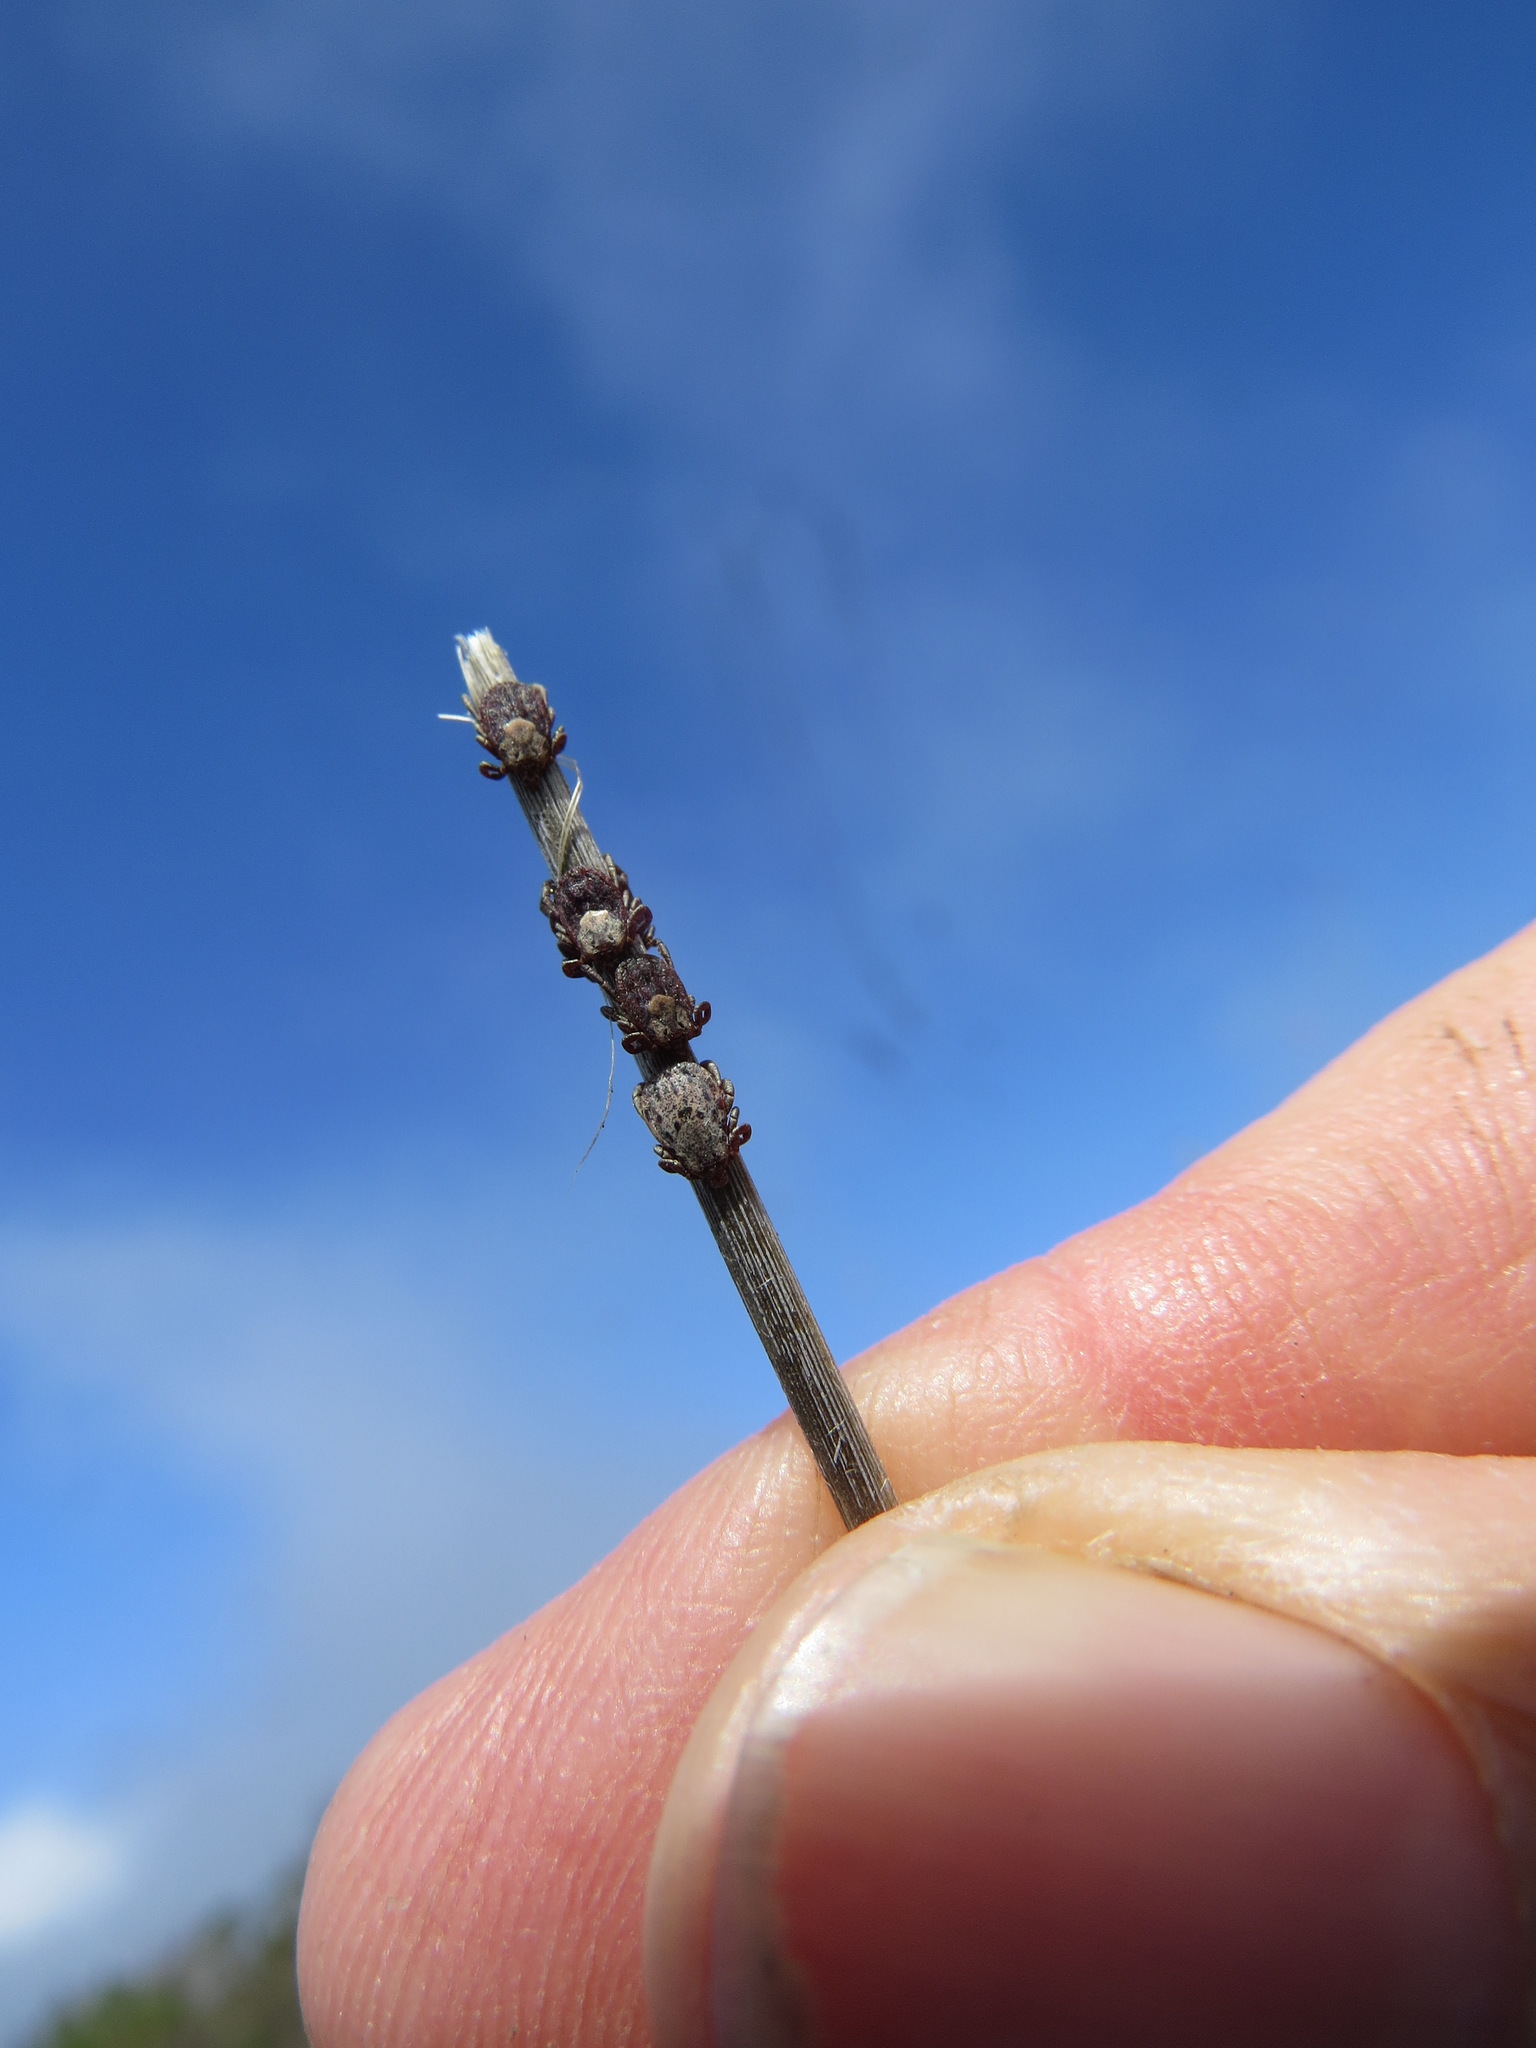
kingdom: Animalia
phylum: Arthropoda
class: Arachnida
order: Ixodida
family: Ixodidae
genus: Dermacentor
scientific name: Dermacentor occidentalis
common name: Net tick
